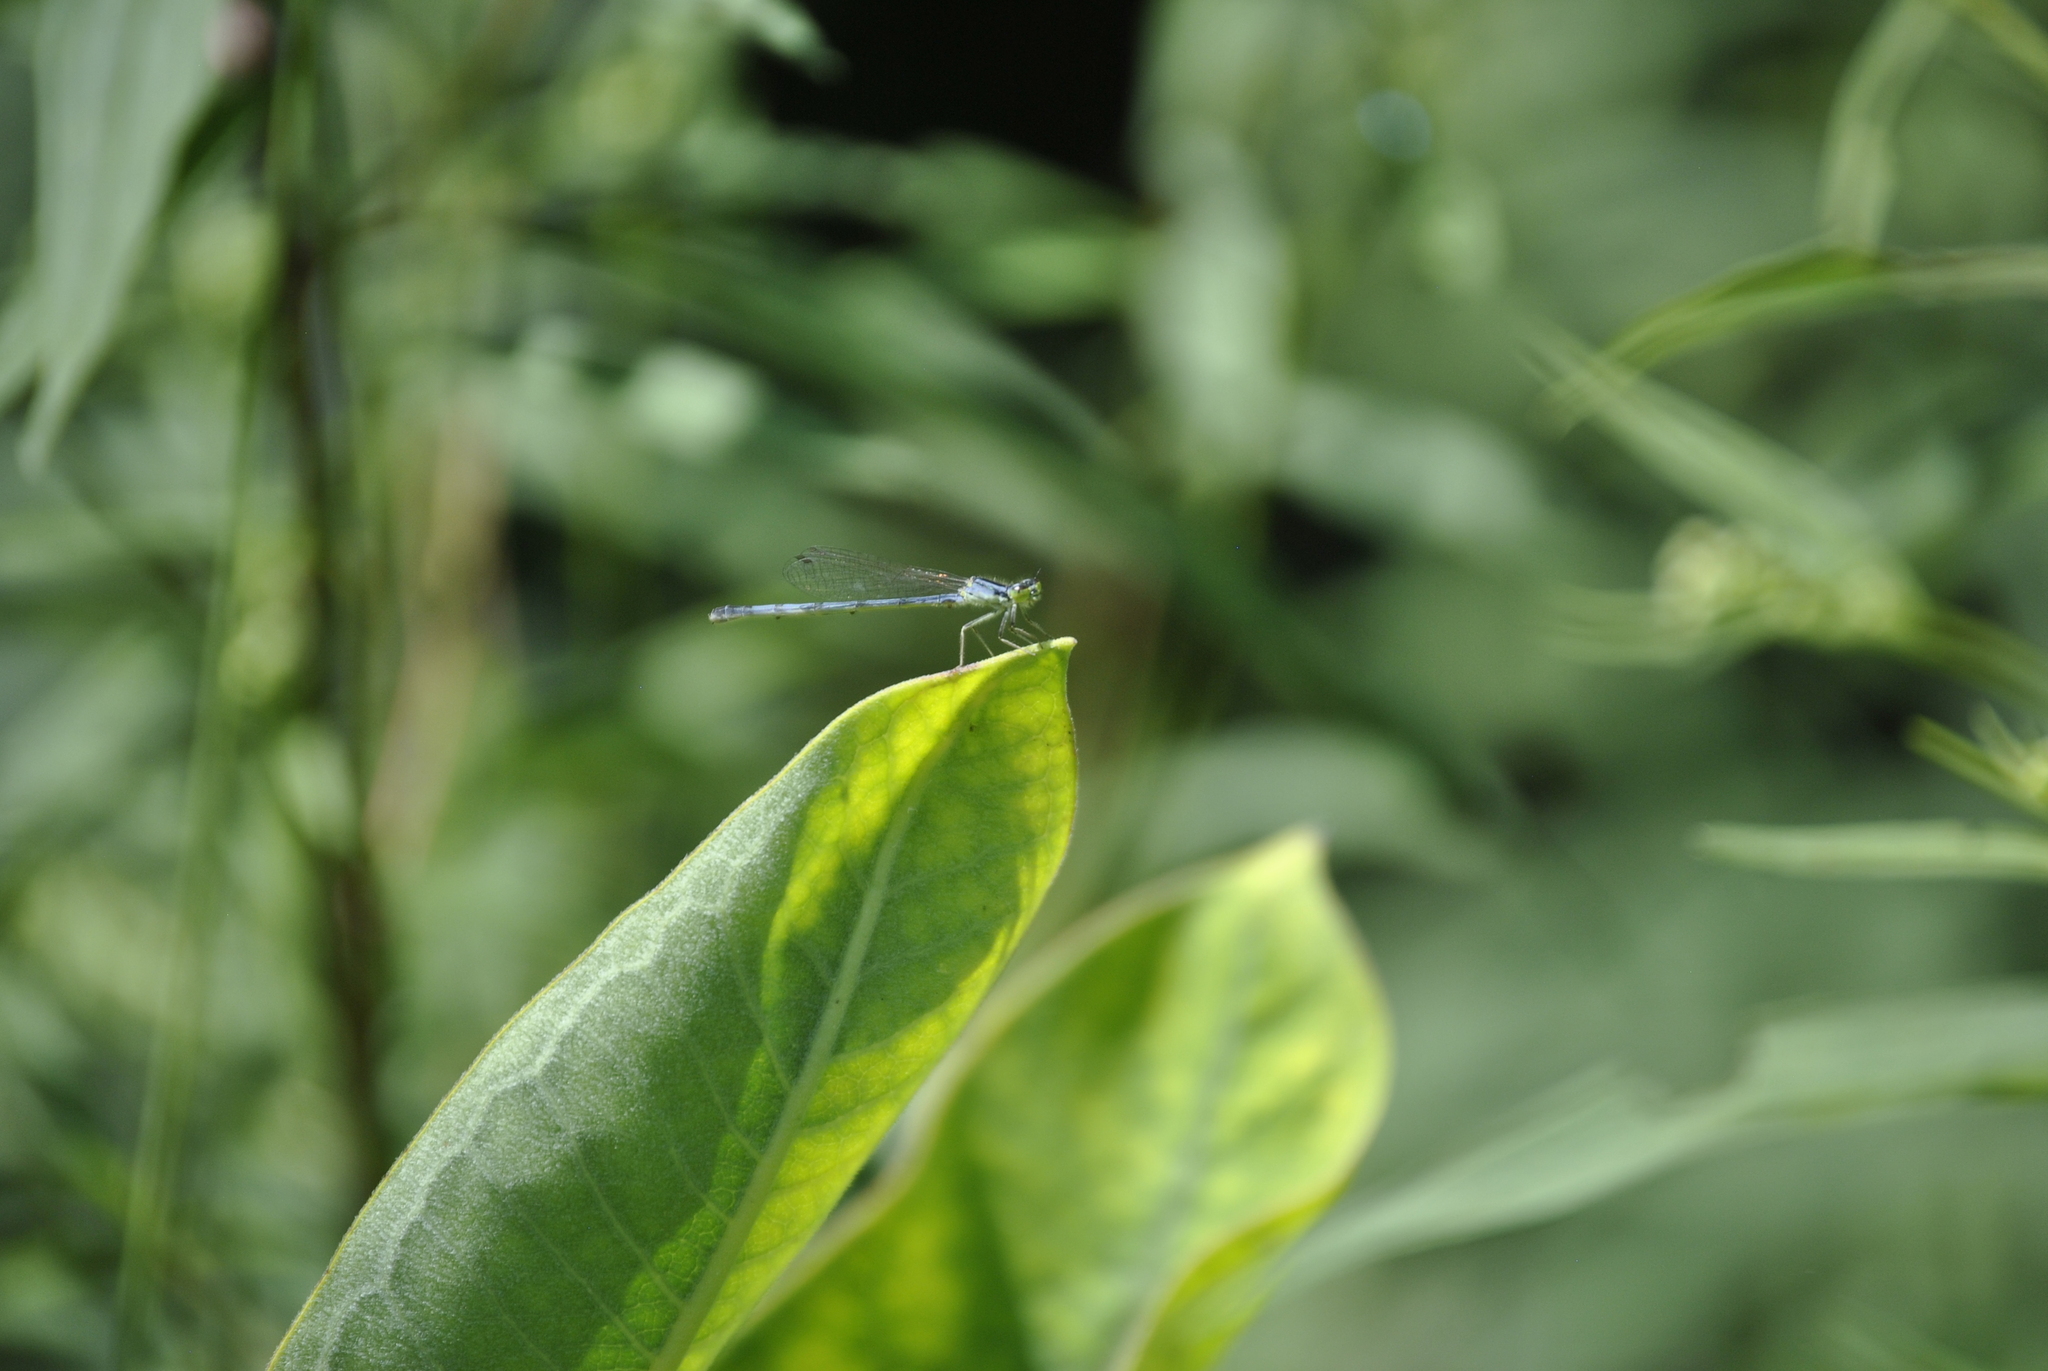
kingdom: Animalia
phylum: Arthropoda
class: Insecta
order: Odonata
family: Coenagrionidae
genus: Ischnura
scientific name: Ischnura verticalis
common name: Eastern forktail
